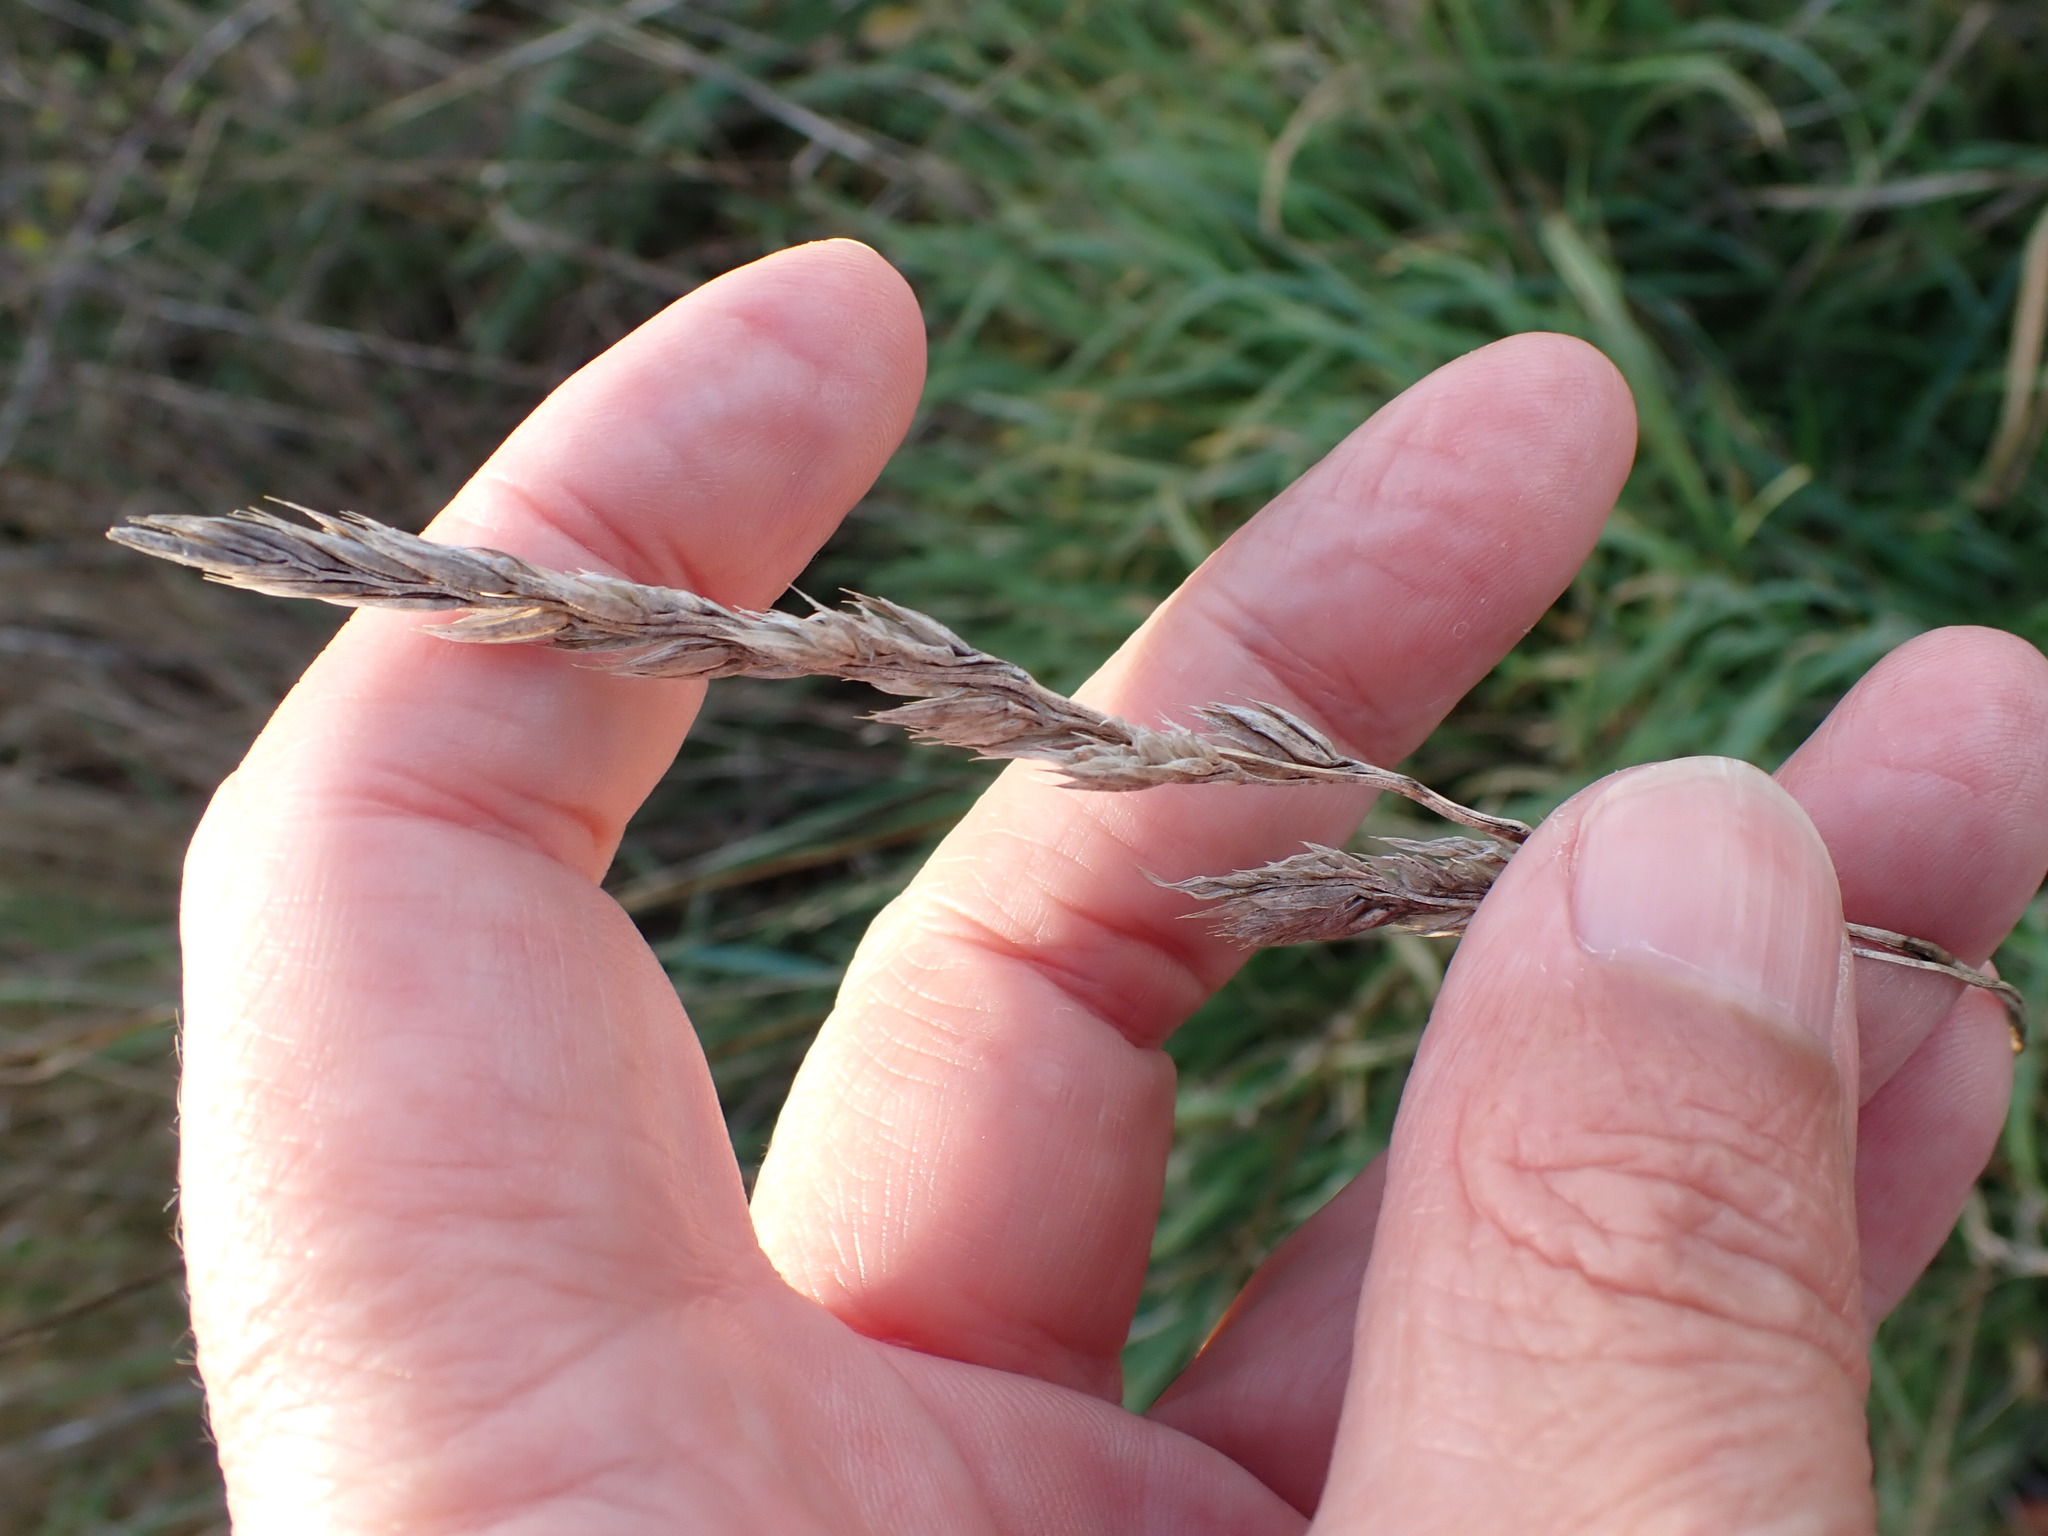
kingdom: Plantae
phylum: Tracheophyta
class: Liliopsida
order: Poales
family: Poaceae
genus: Dactylis
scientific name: Dactylis glomerata
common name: Orchardgrass
